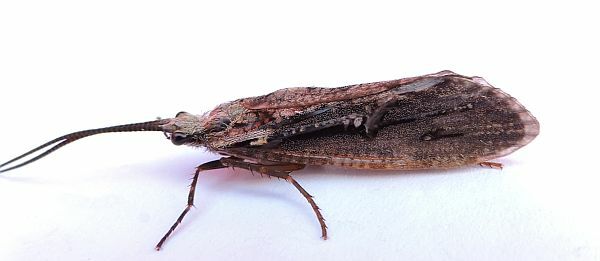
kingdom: Animalia
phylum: Arthropoda
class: Insecta
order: Trichoptera
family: Phryganeidae
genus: Phryganea
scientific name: Phryganea sayi
